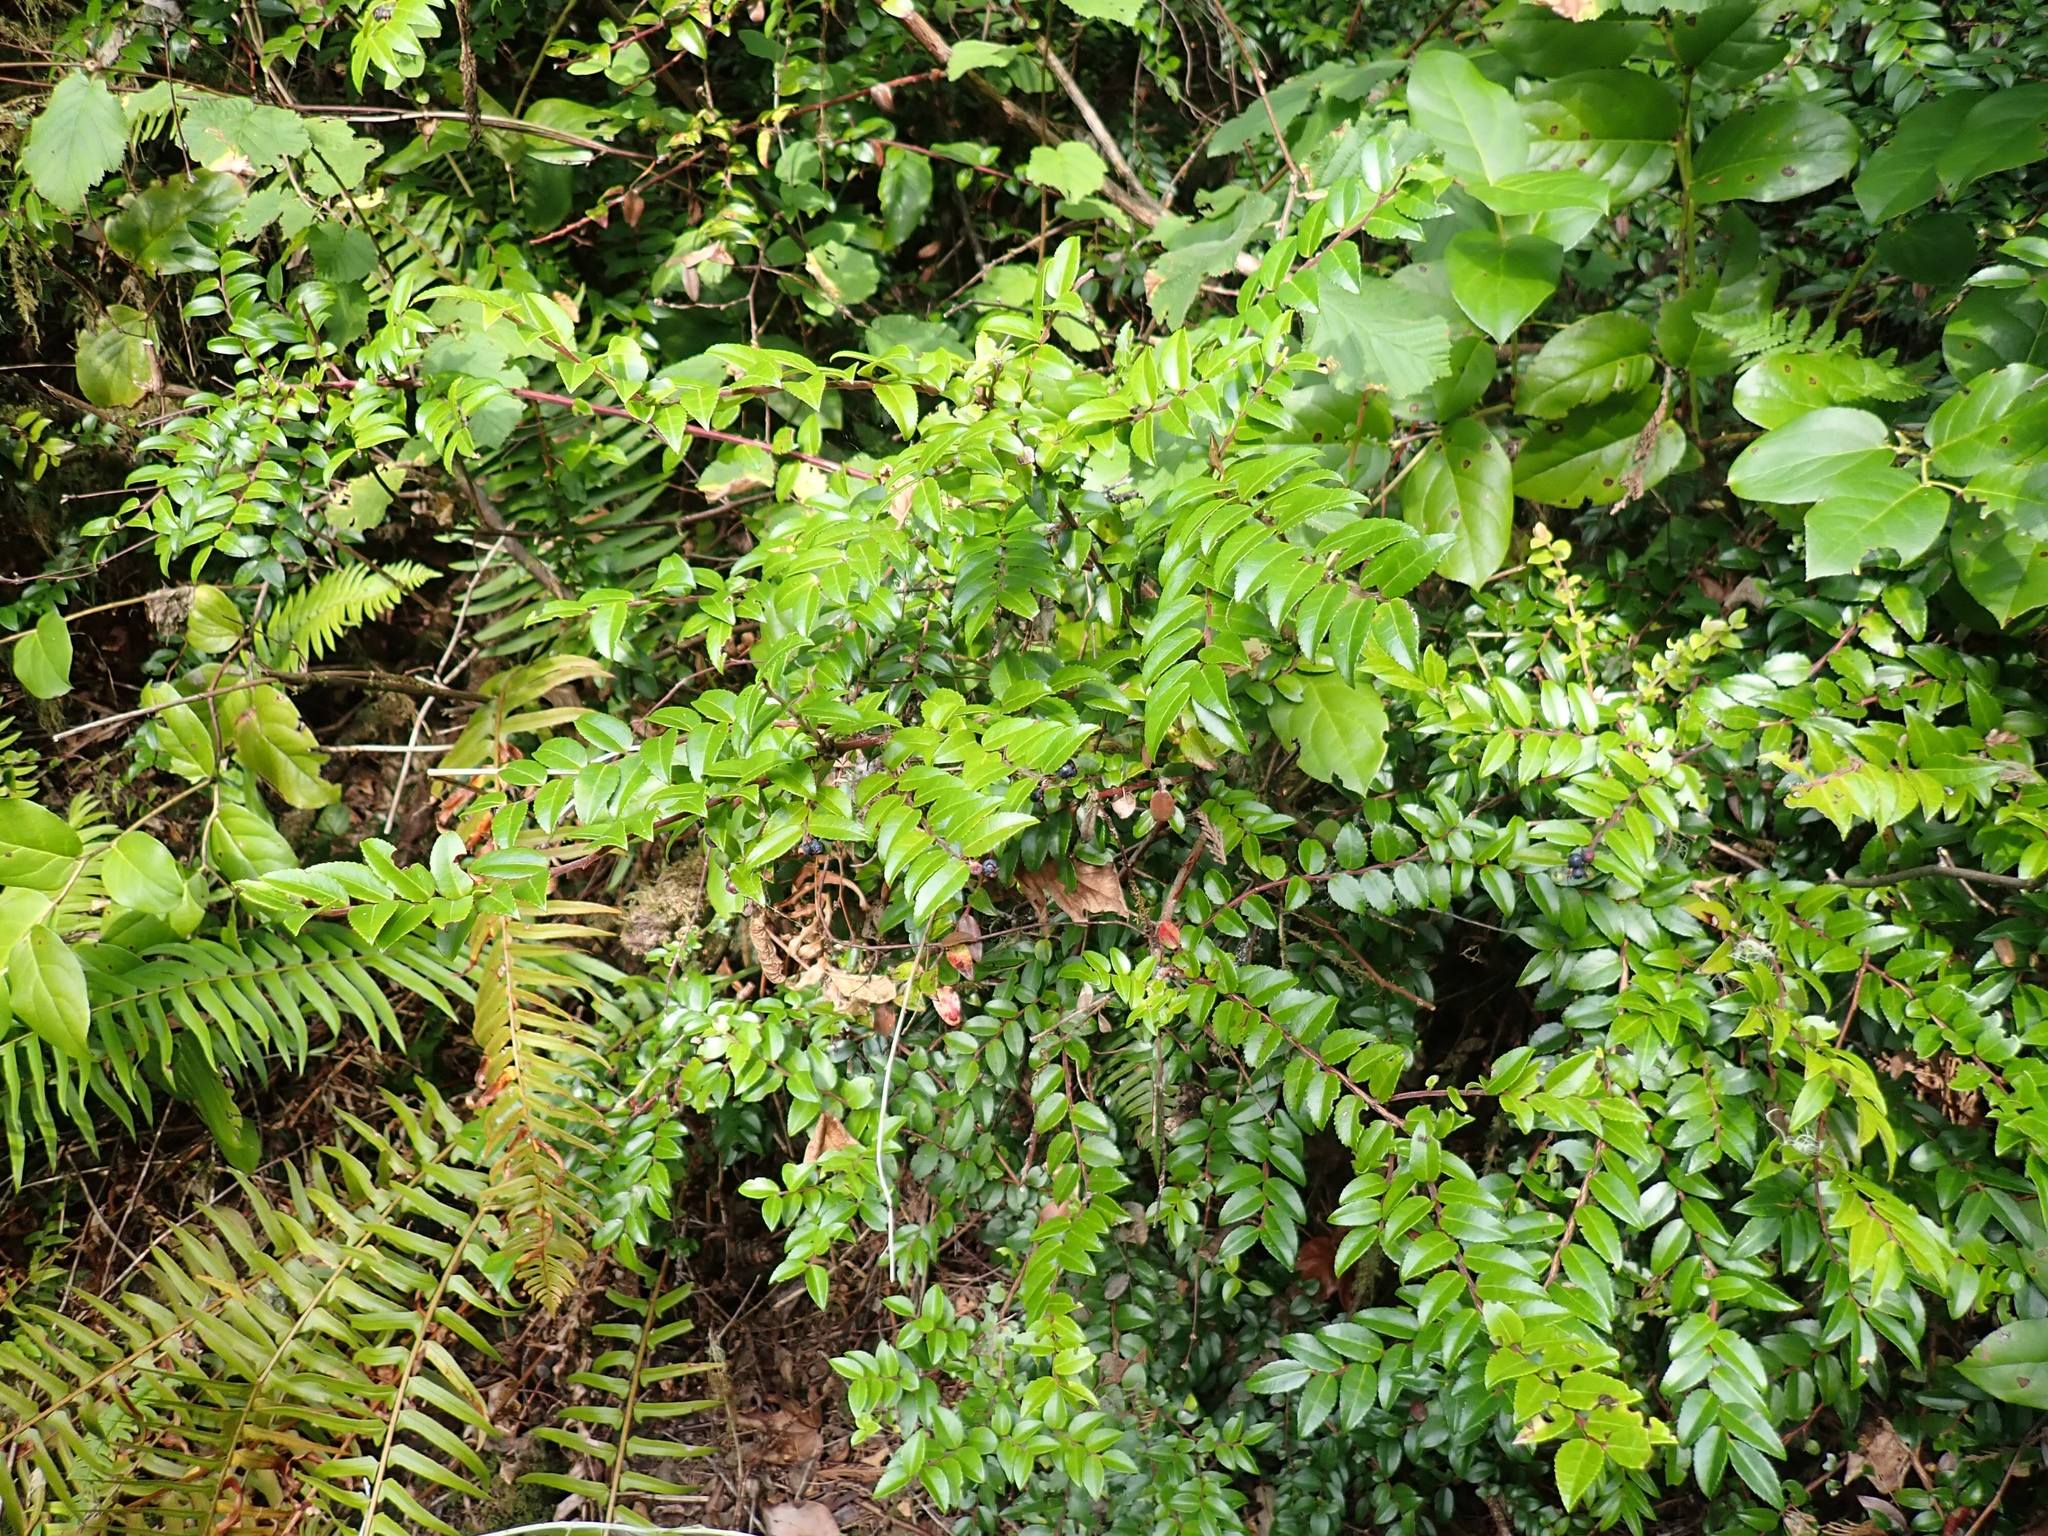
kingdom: Plantae
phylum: Tracheophyta
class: Magnoliopsida
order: Ericales
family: Ericaceae
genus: Vaccinium
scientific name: Vaccinium ovatum
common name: California-huckleberry
